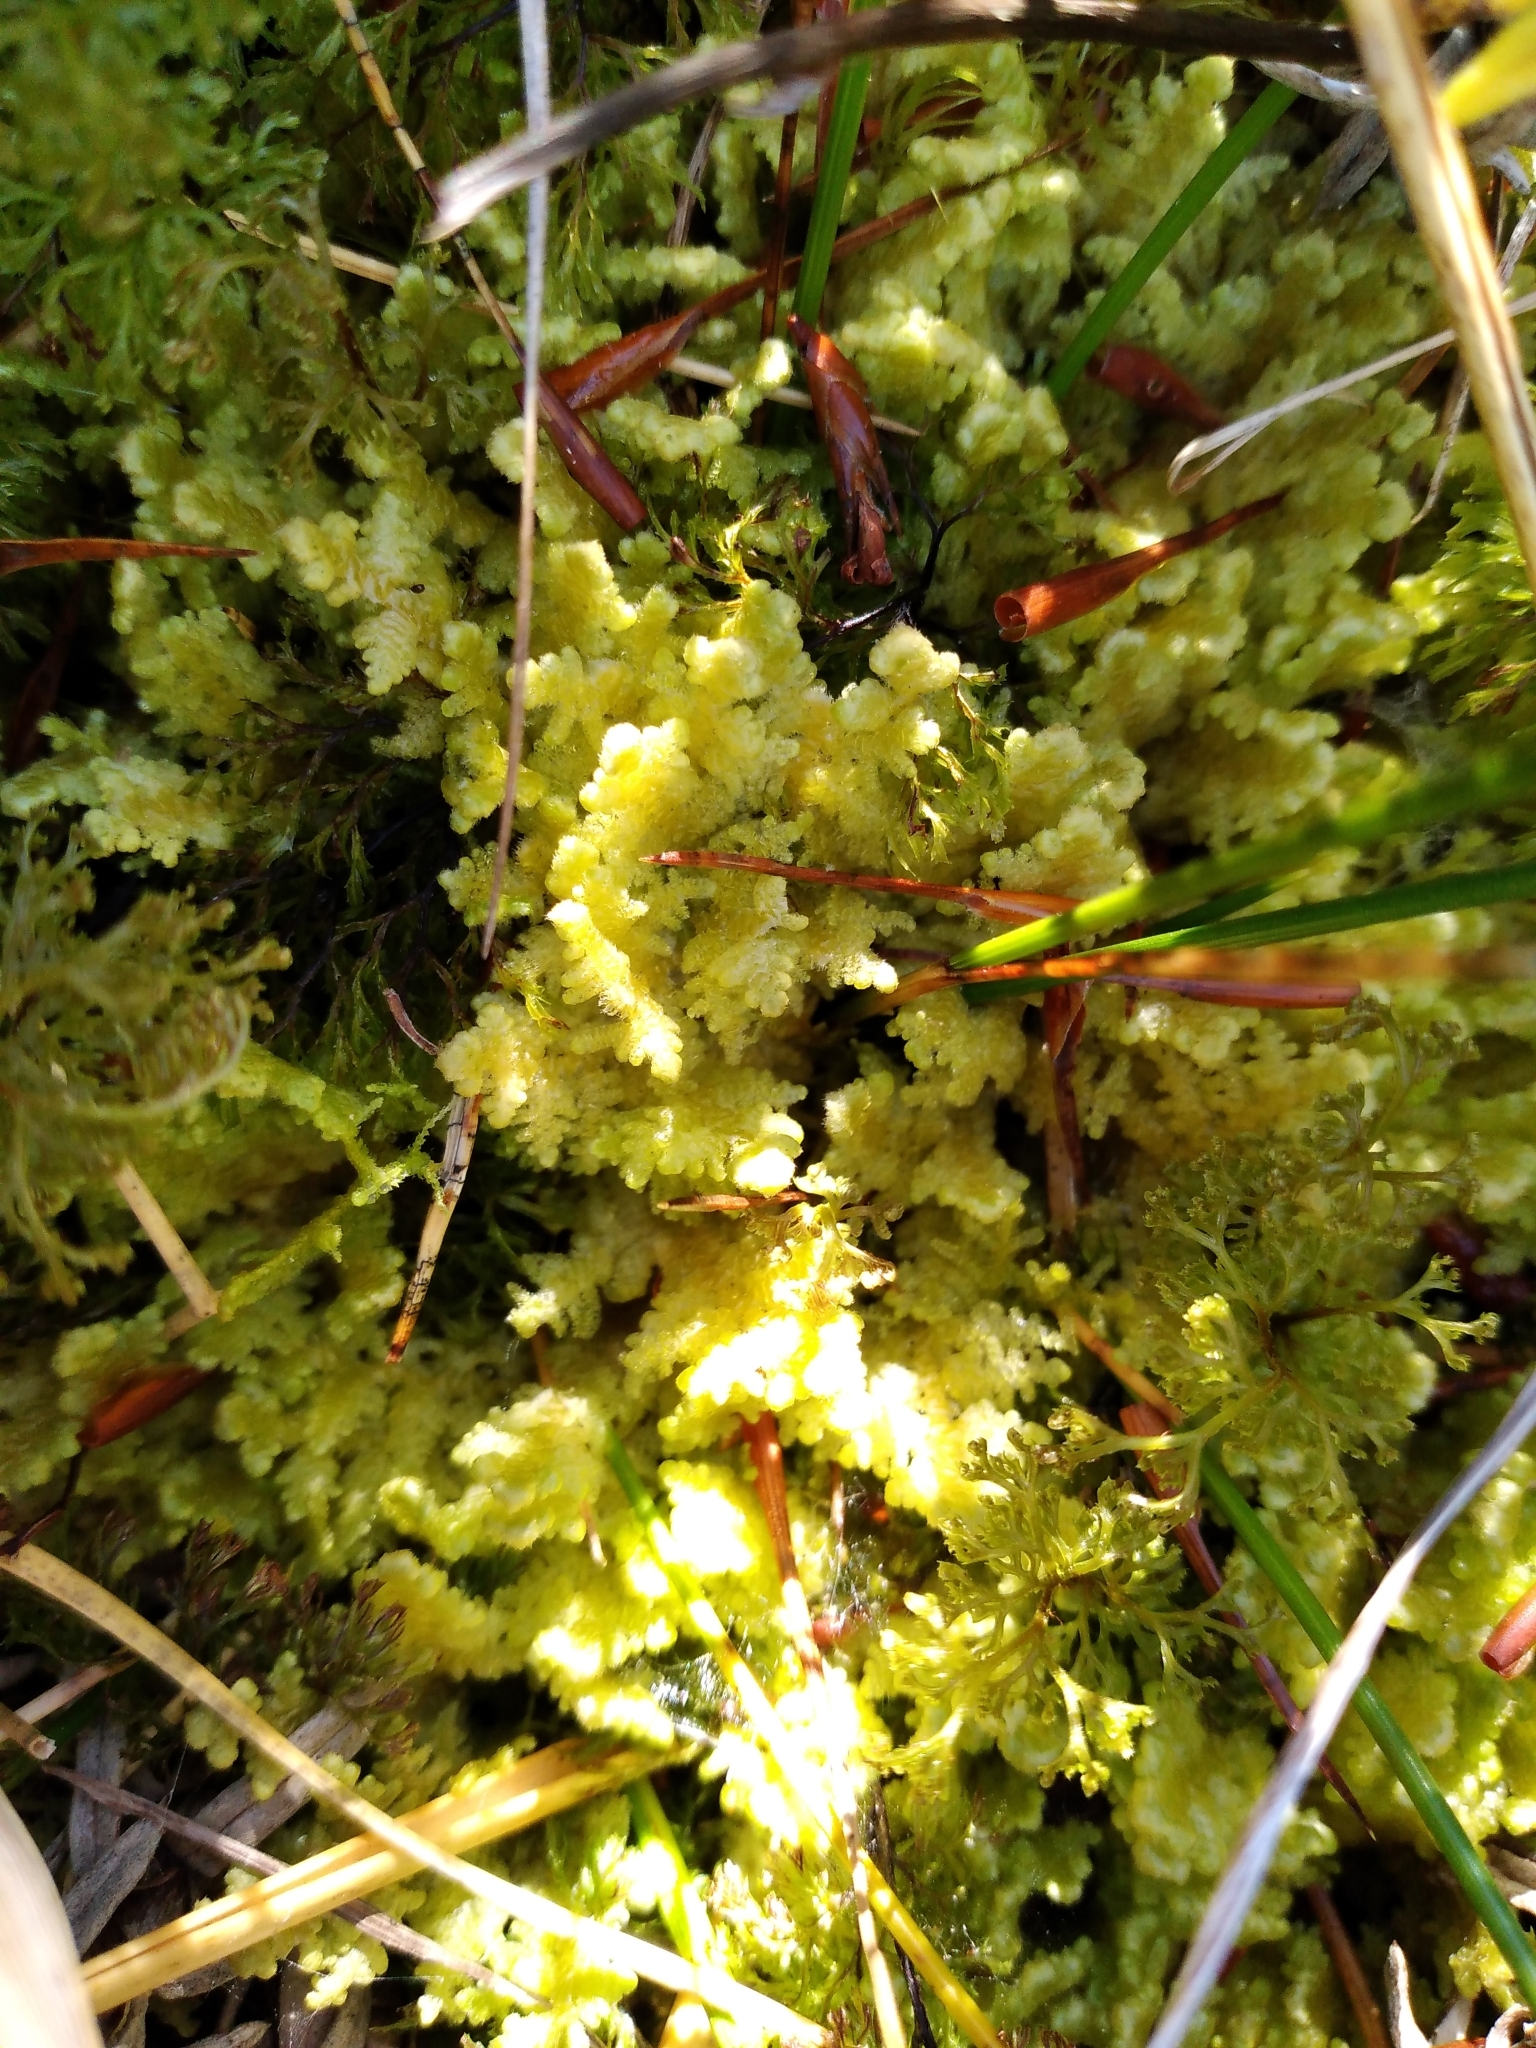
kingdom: Plantae
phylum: Marchantiophyta
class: Jungermanniopsida
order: Porellales
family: Lepidolaenaceae
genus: Lepidogyna
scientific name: Lepidogyna hodgsoniae
